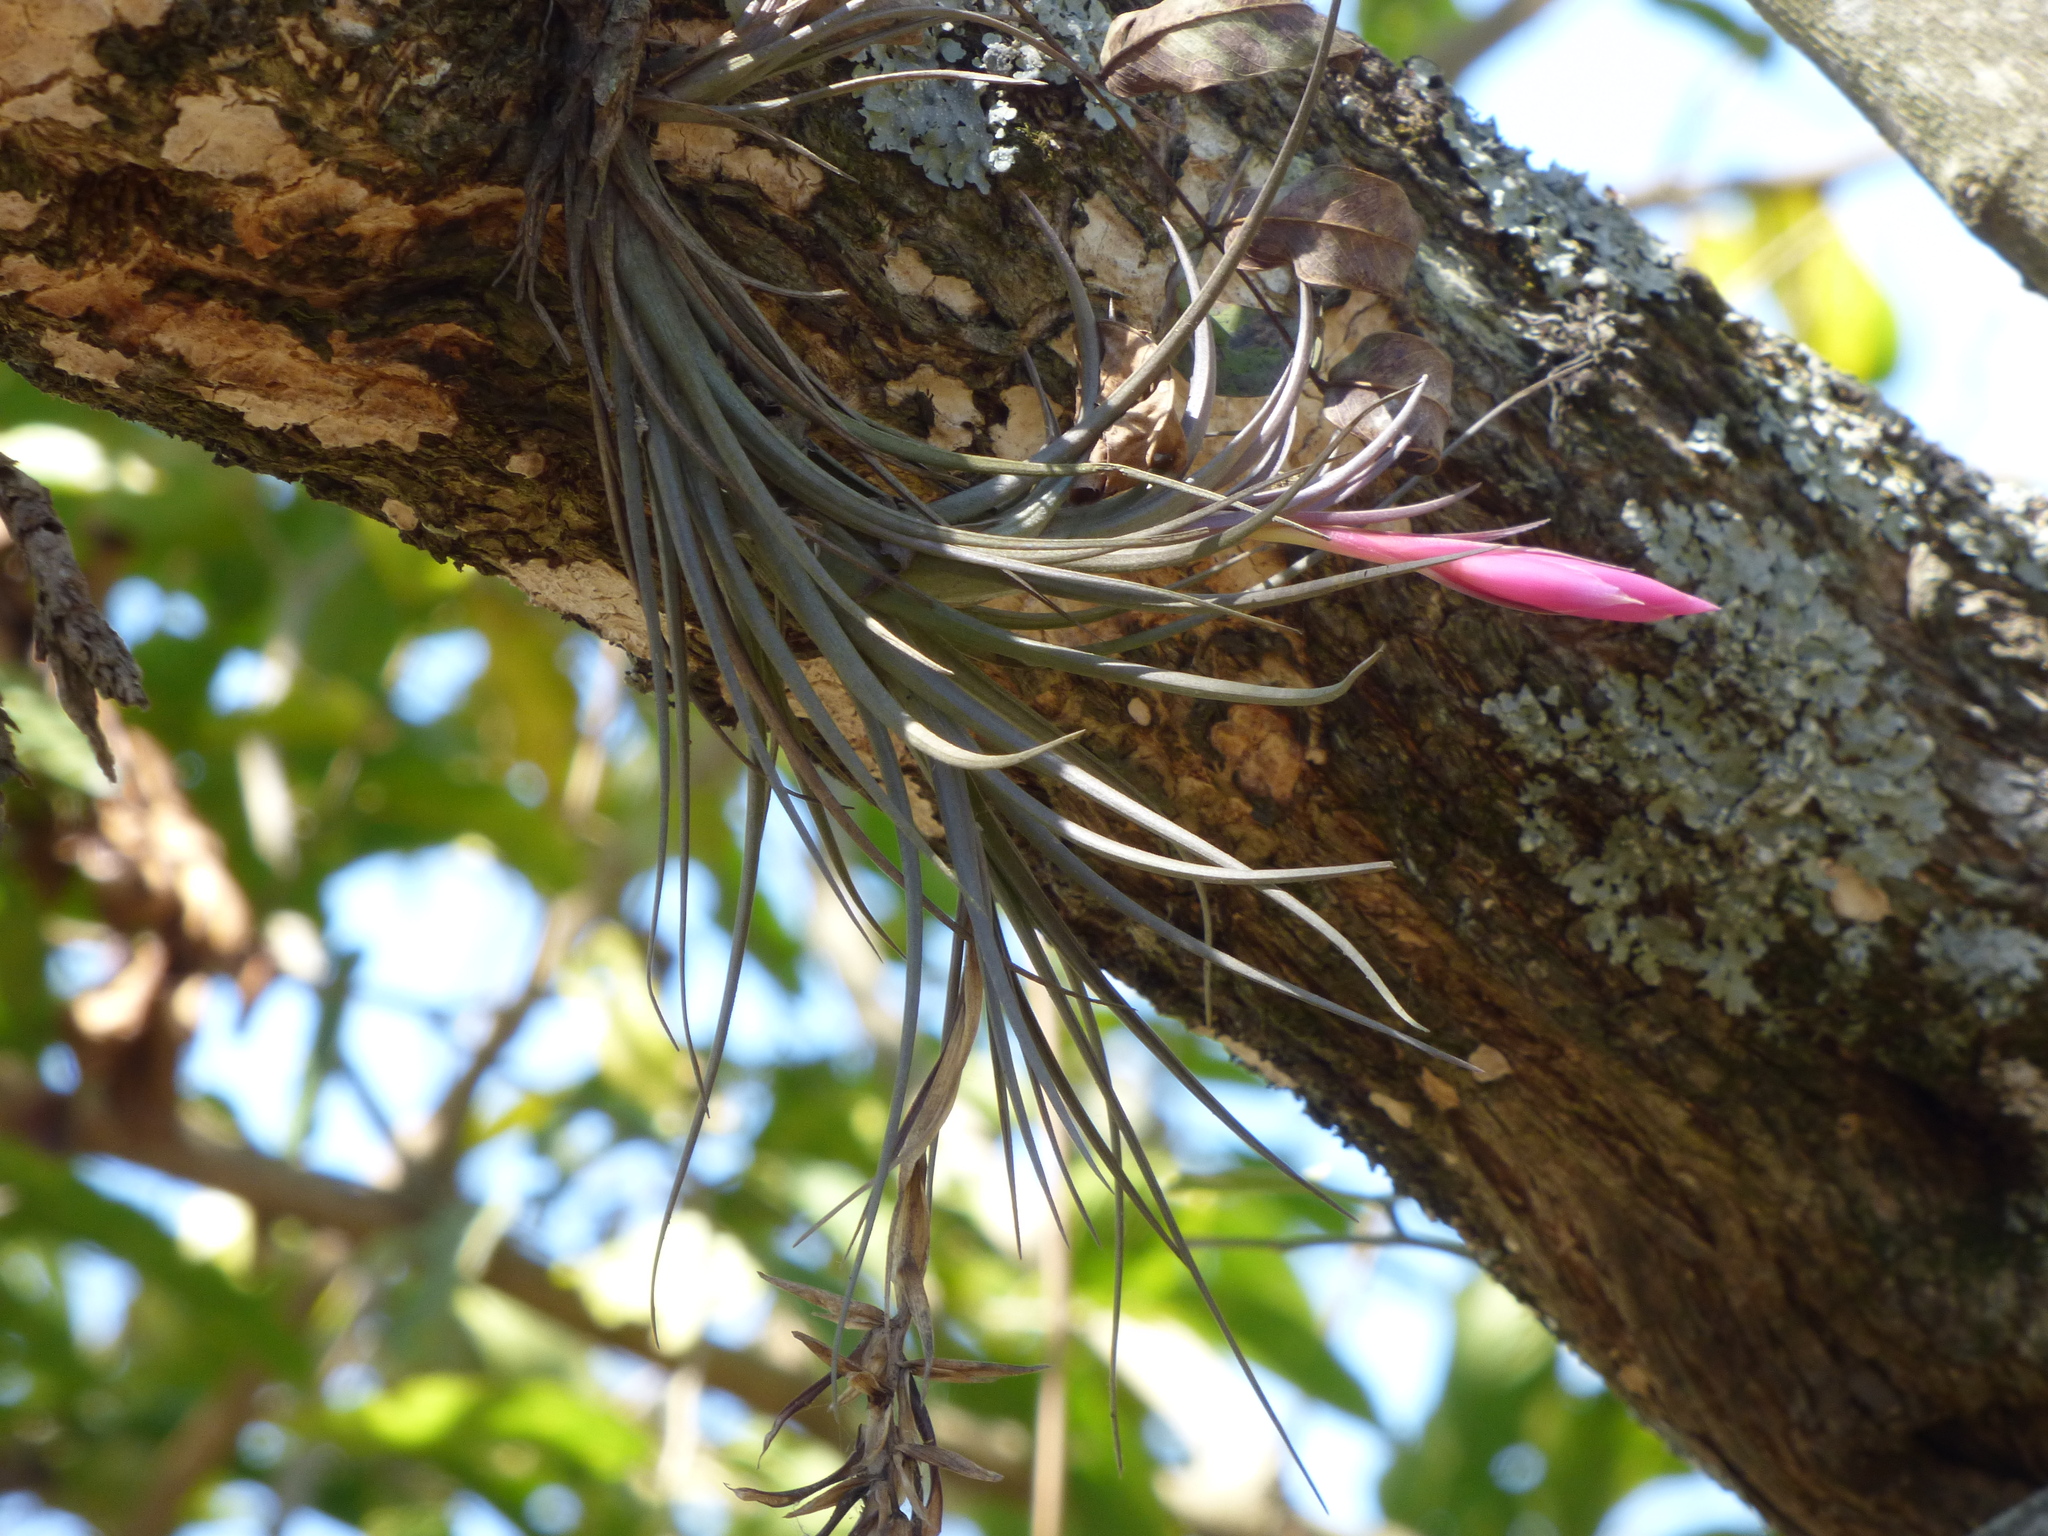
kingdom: Plantae
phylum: Tracheophyta
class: Liliopsida
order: Poales
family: Bromeliaceae
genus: Tillandsia
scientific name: Tillandsia tenuifolia
